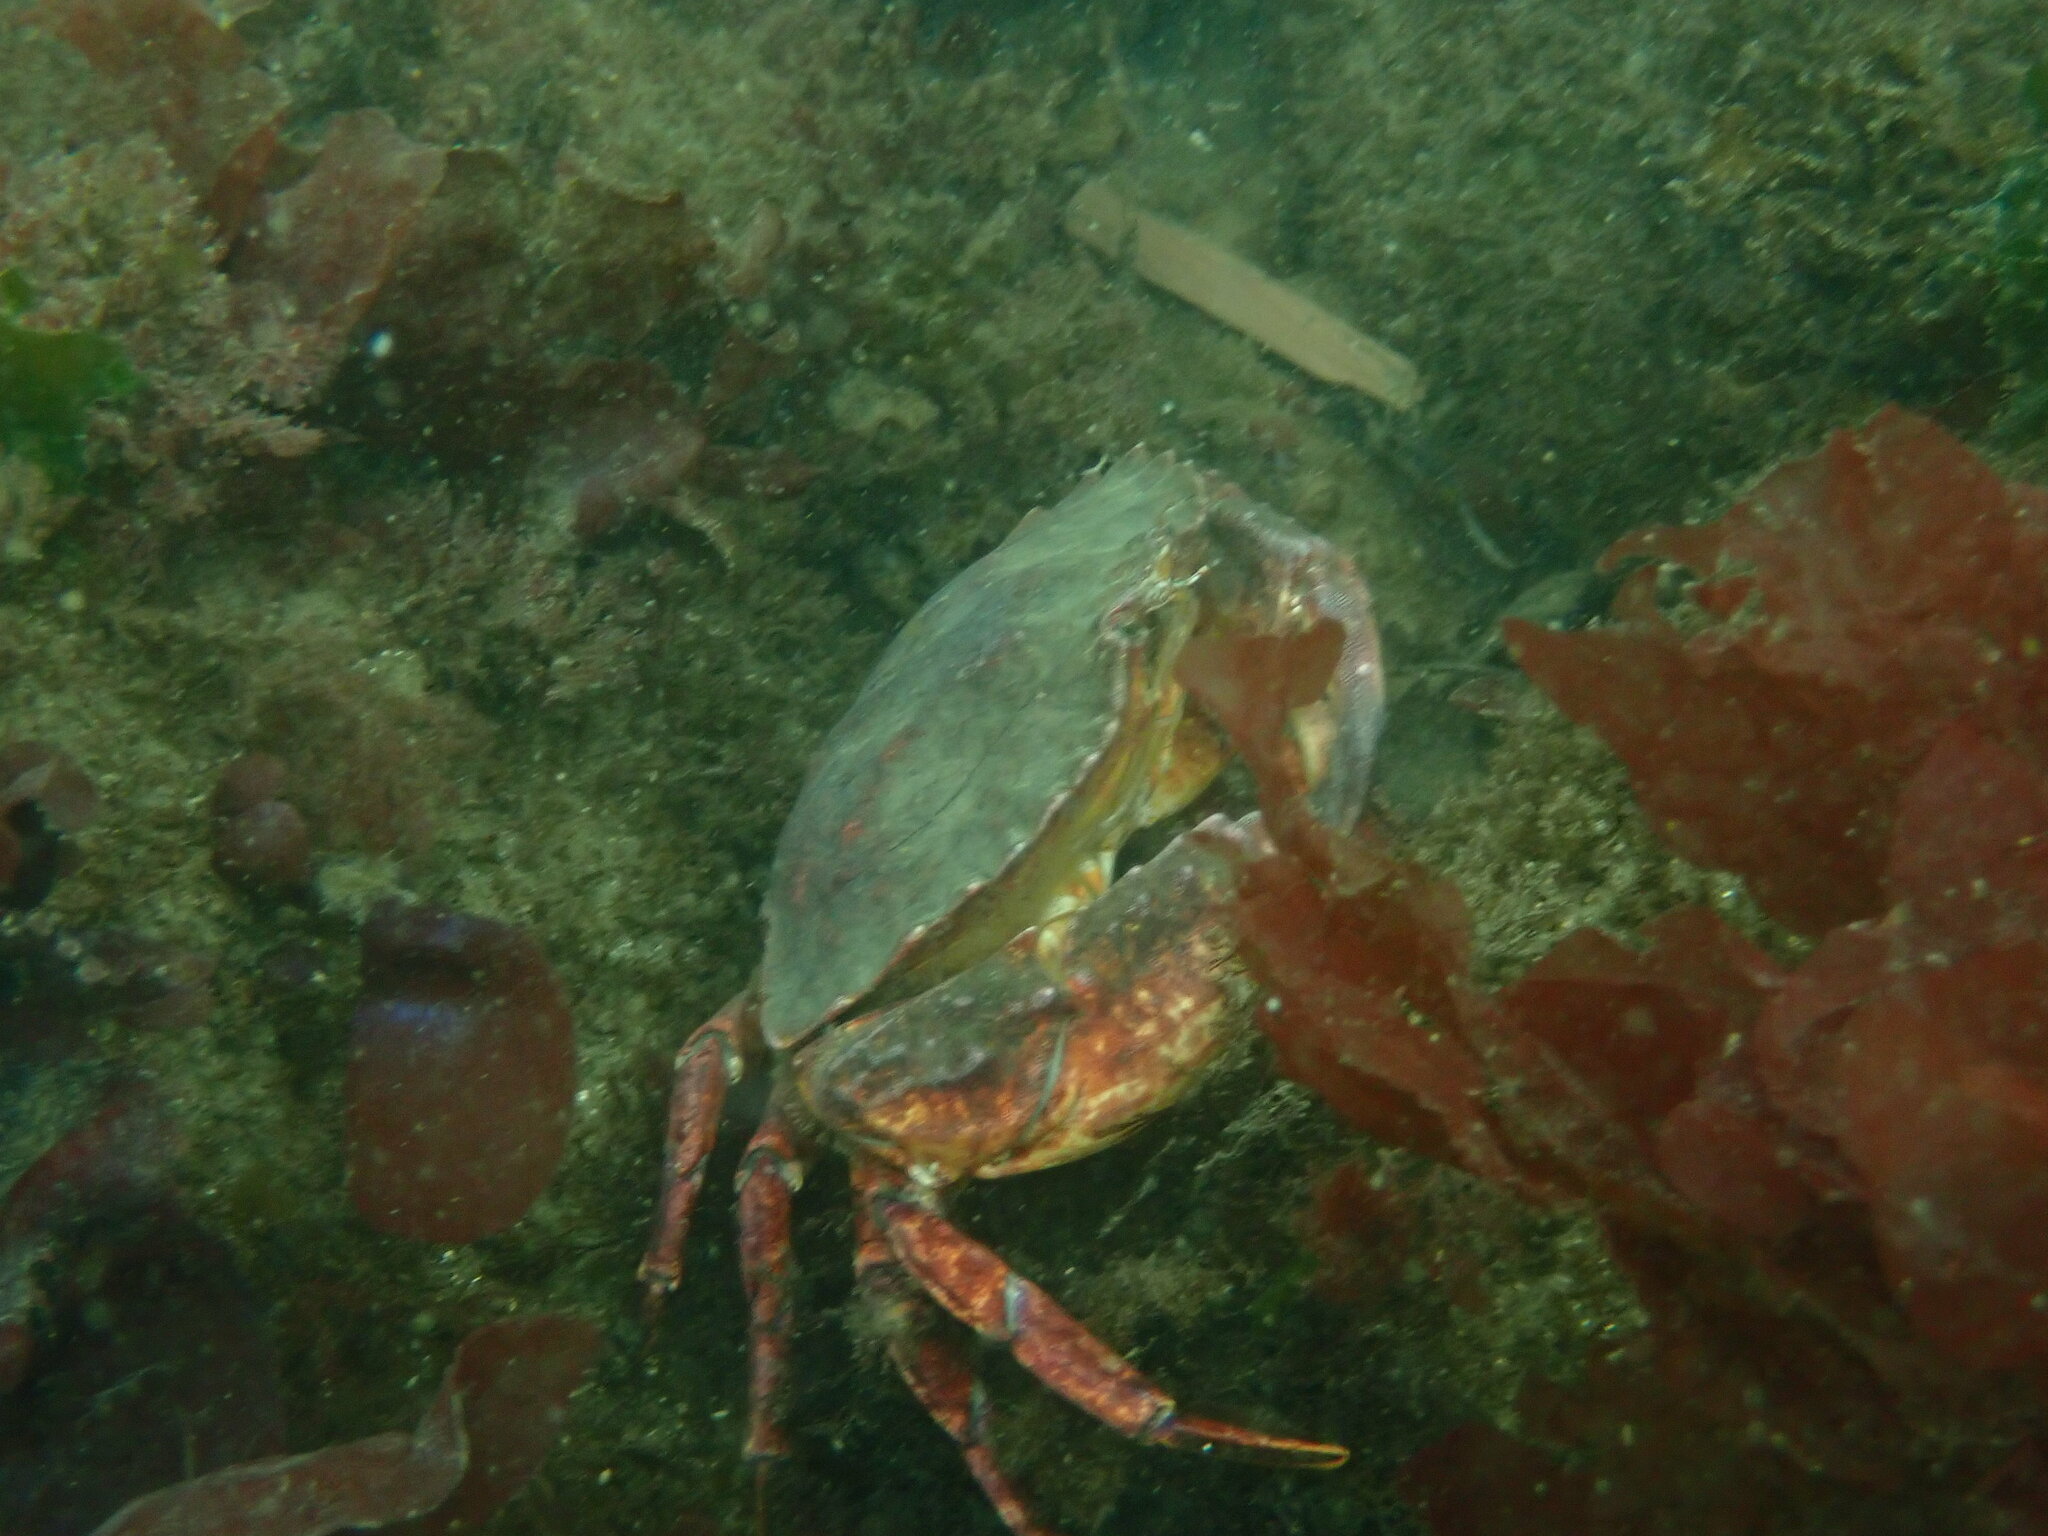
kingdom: Animalia
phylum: Arthropoda
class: Malacostraca
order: Decapoda
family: Cancridae
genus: Cancer
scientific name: Cancer productus
